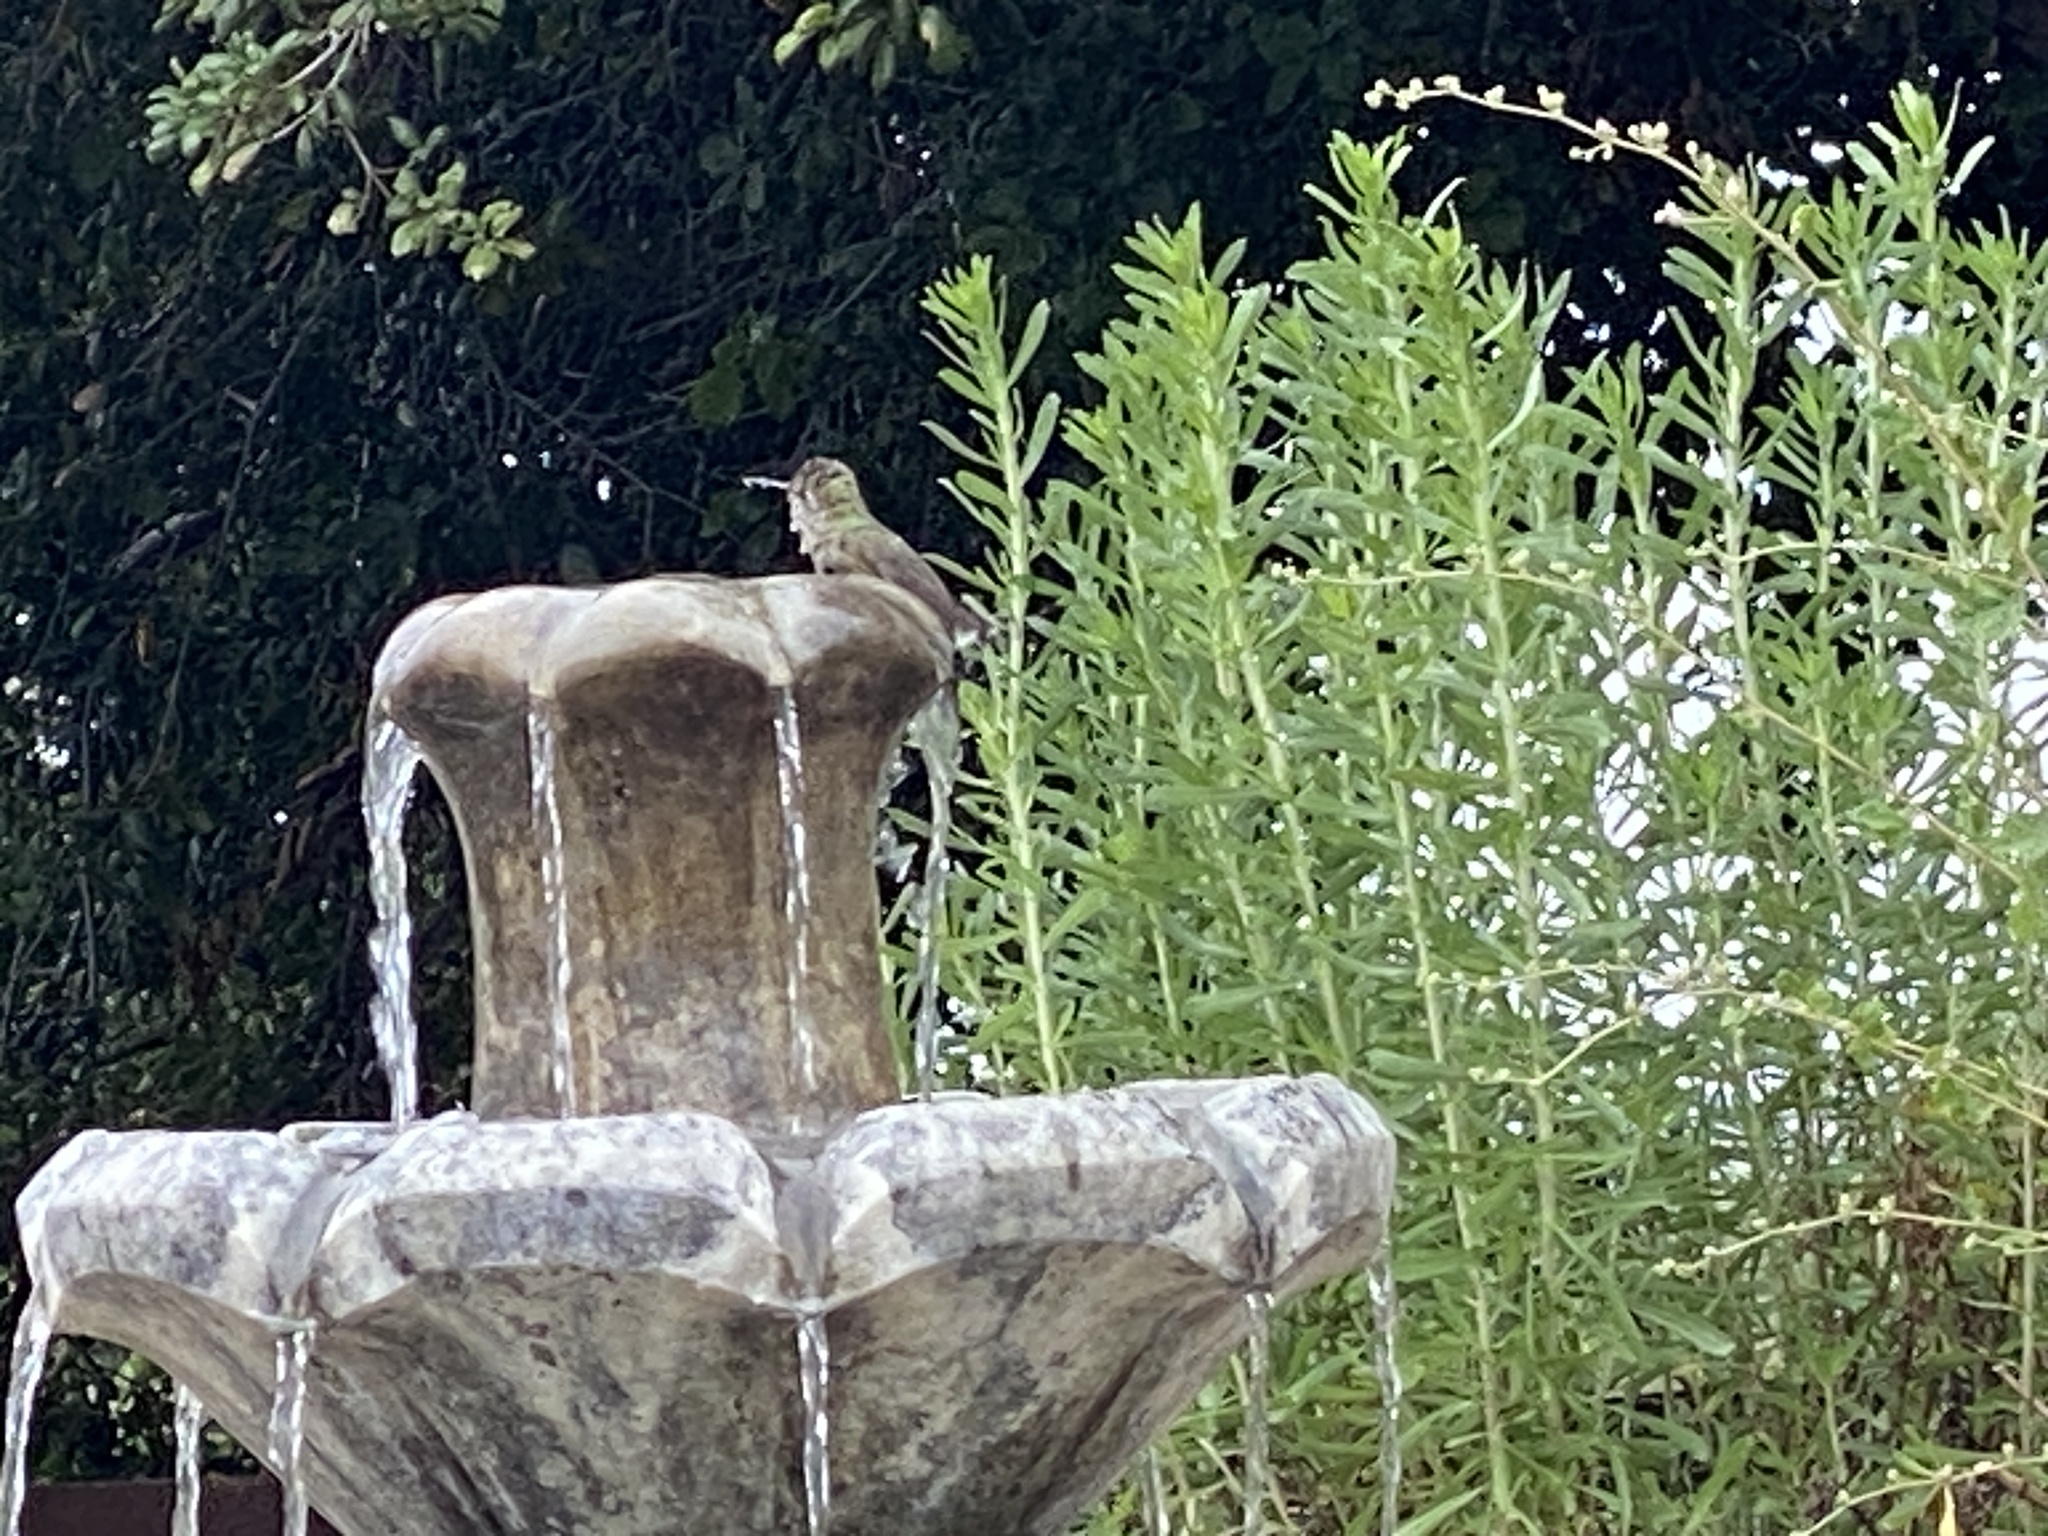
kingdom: Animalia
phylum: Chordata
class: Aves
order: Apodiformes
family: Trochilidae
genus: Calypte
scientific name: Calypte anna
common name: Anna's hummingbird
